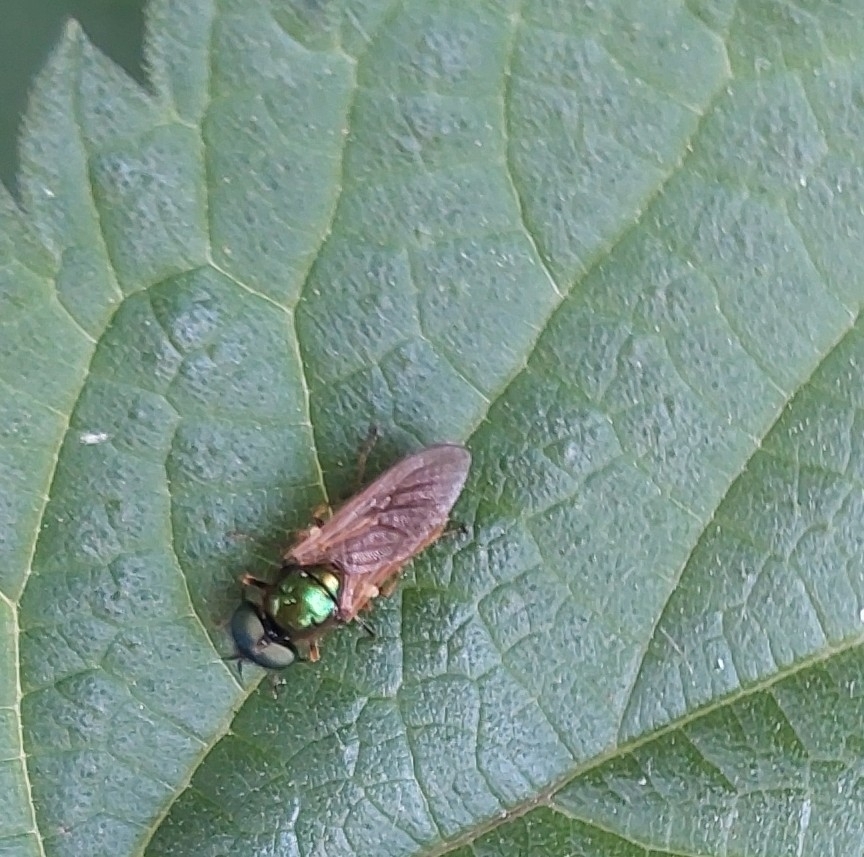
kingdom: Animalia
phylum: Arthropoda
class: Insecta
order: Diptera
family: Stratiomyidae
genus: Chloromyia
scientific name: Chloromyia formosa
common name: Soldier fly
